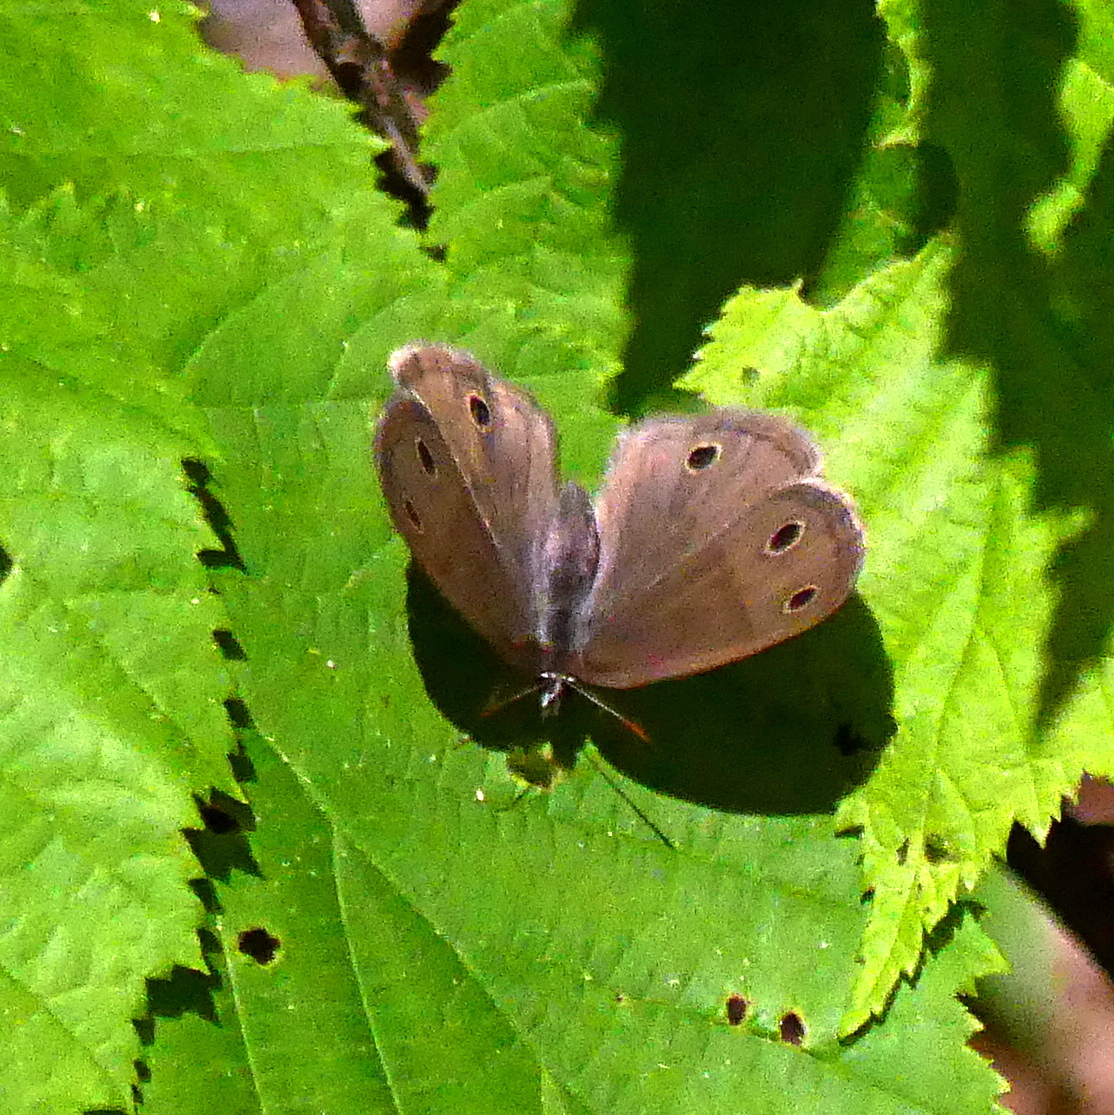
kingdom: Animalia
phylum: Arthropoda
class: Insecta
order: Lepidoptera
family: Nymphalidae
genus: Euptychia
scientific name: Euptychia cymela
